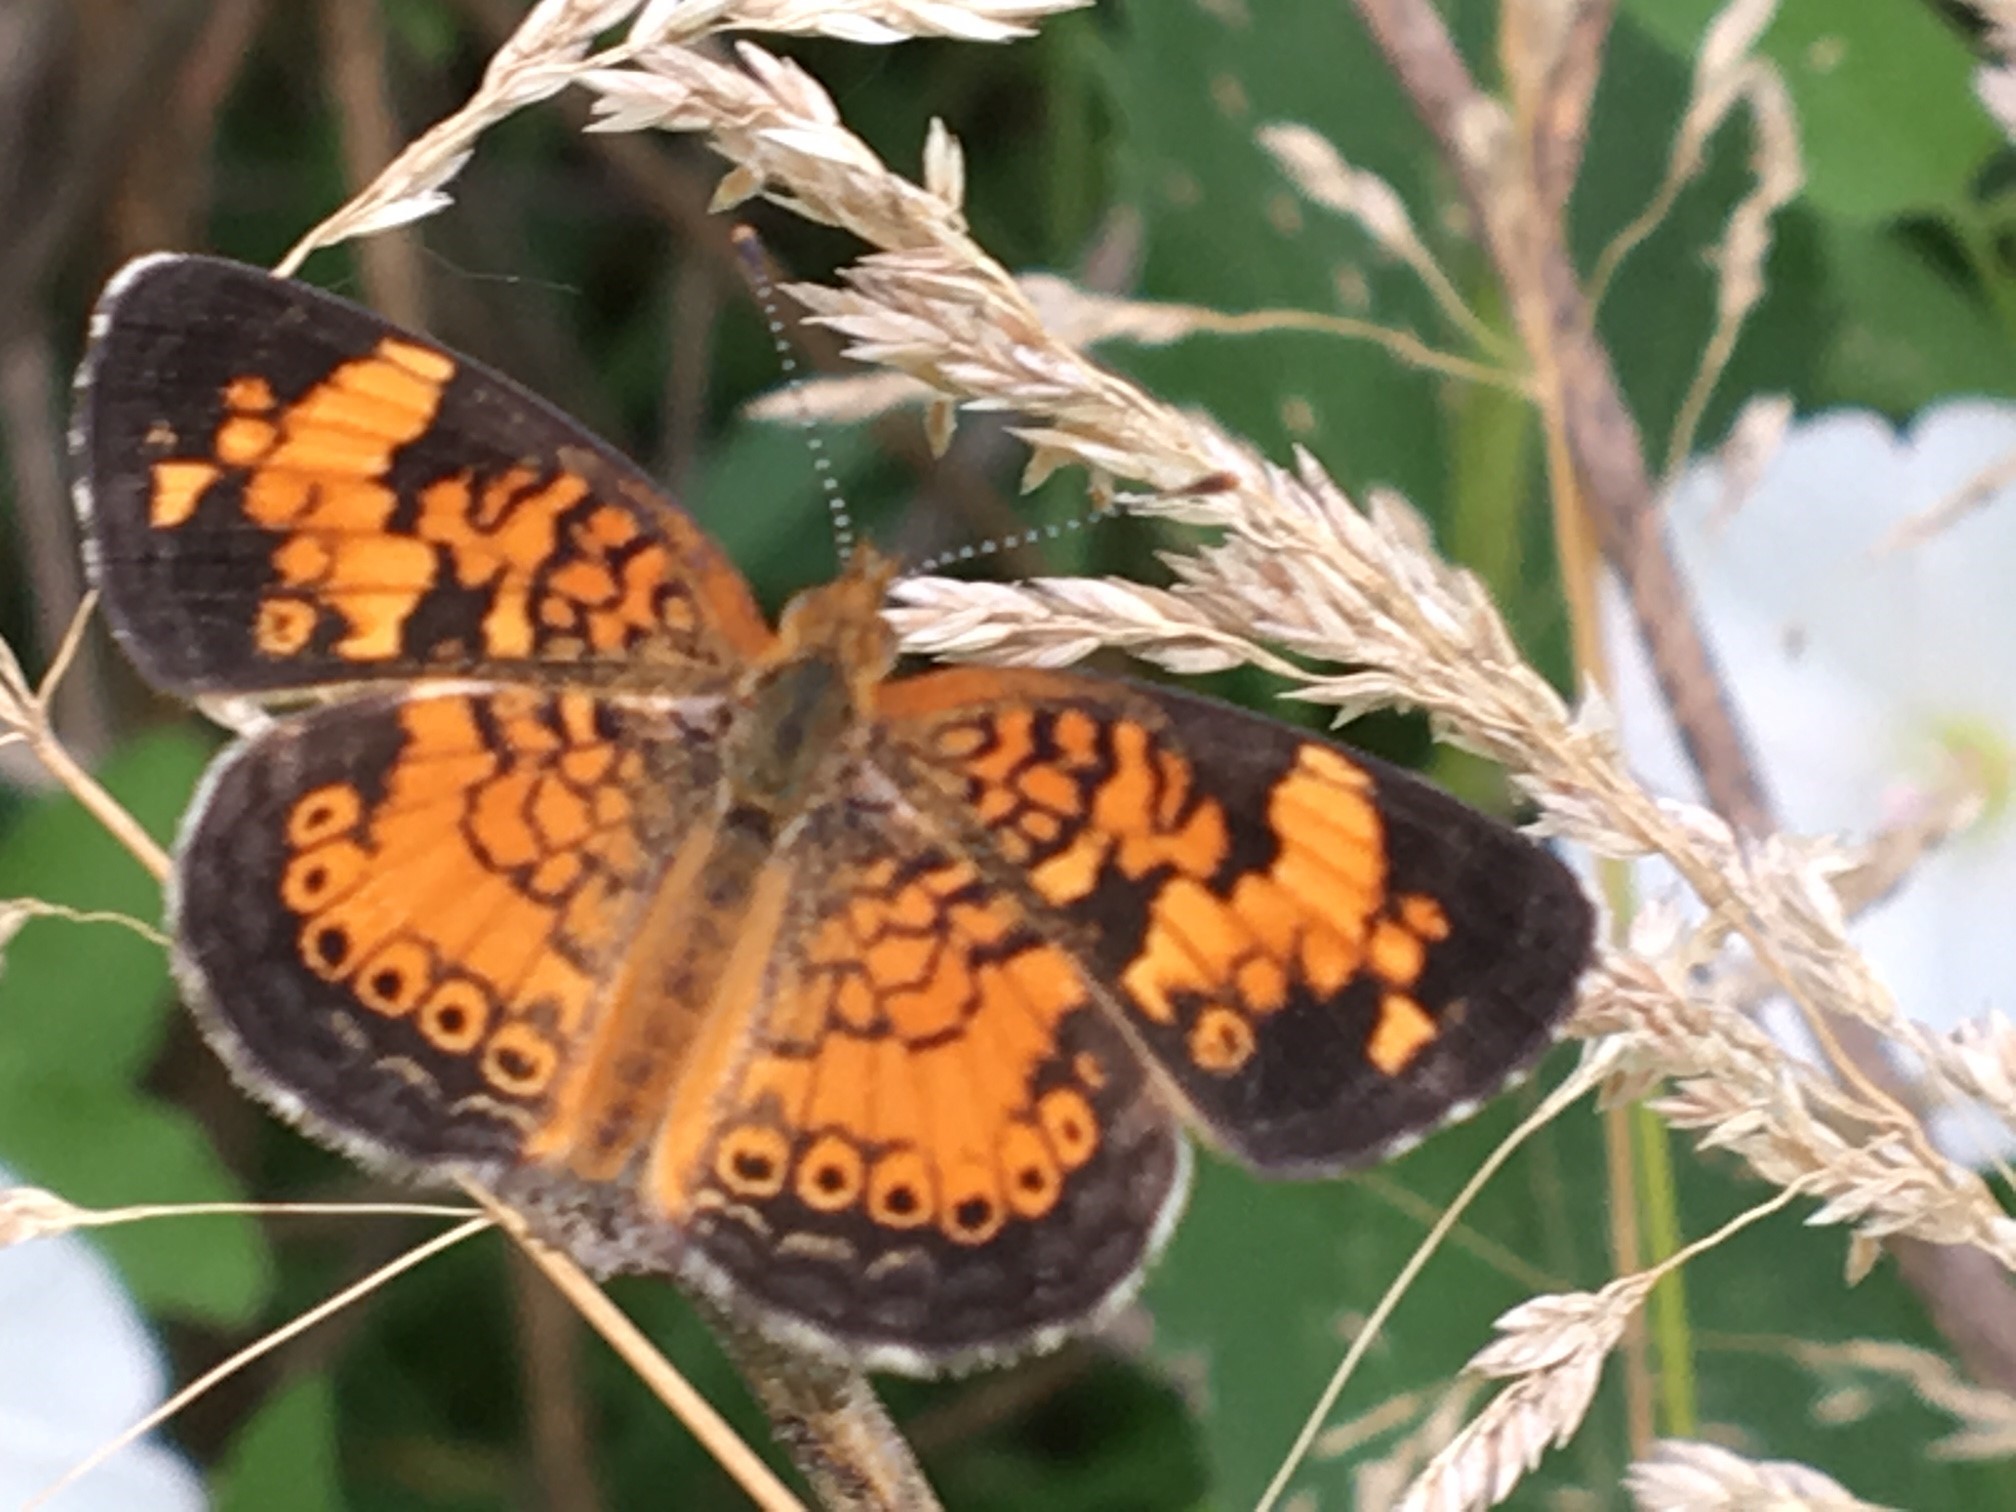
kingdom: Animalia
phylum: Arthropoda
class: Insecta
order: Lepidoptera
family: Nymphalidae
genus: Phyciodes
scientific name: Phyciodes tharos
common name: Pearl crescent
